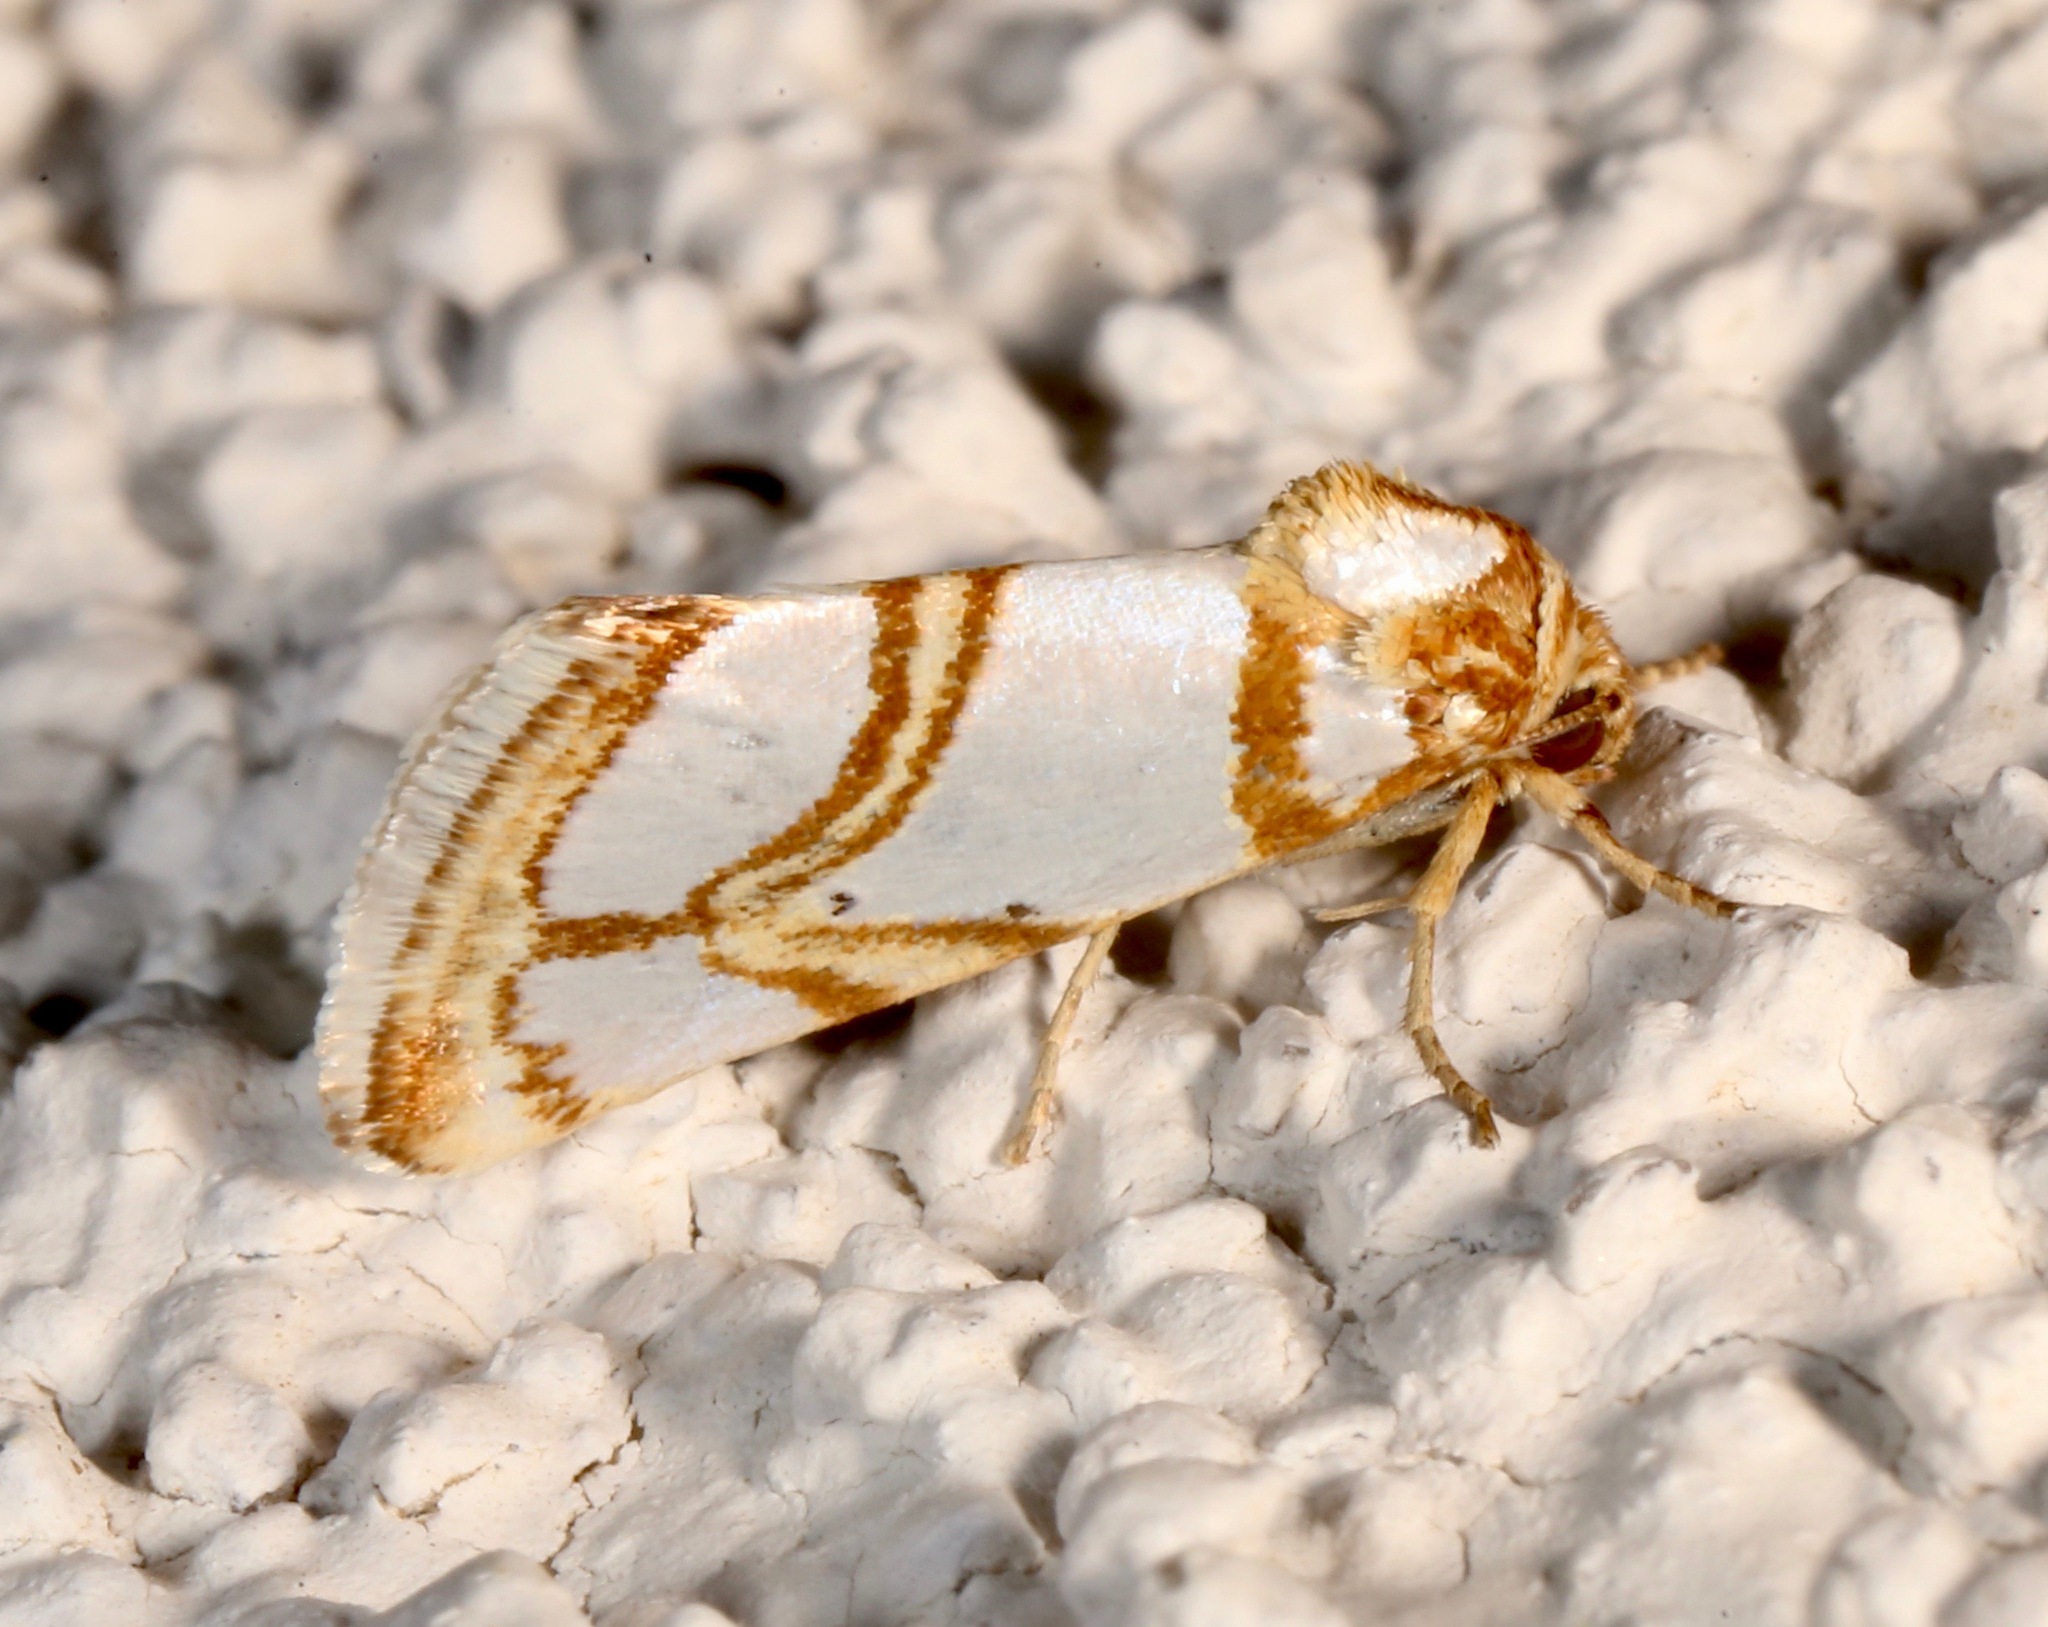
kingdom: Animalia
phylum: Arthropoda
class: Insecta
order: Lepidoptera
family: Noctuidae
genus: Argentostiria
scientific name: Argentostiria koebelei
